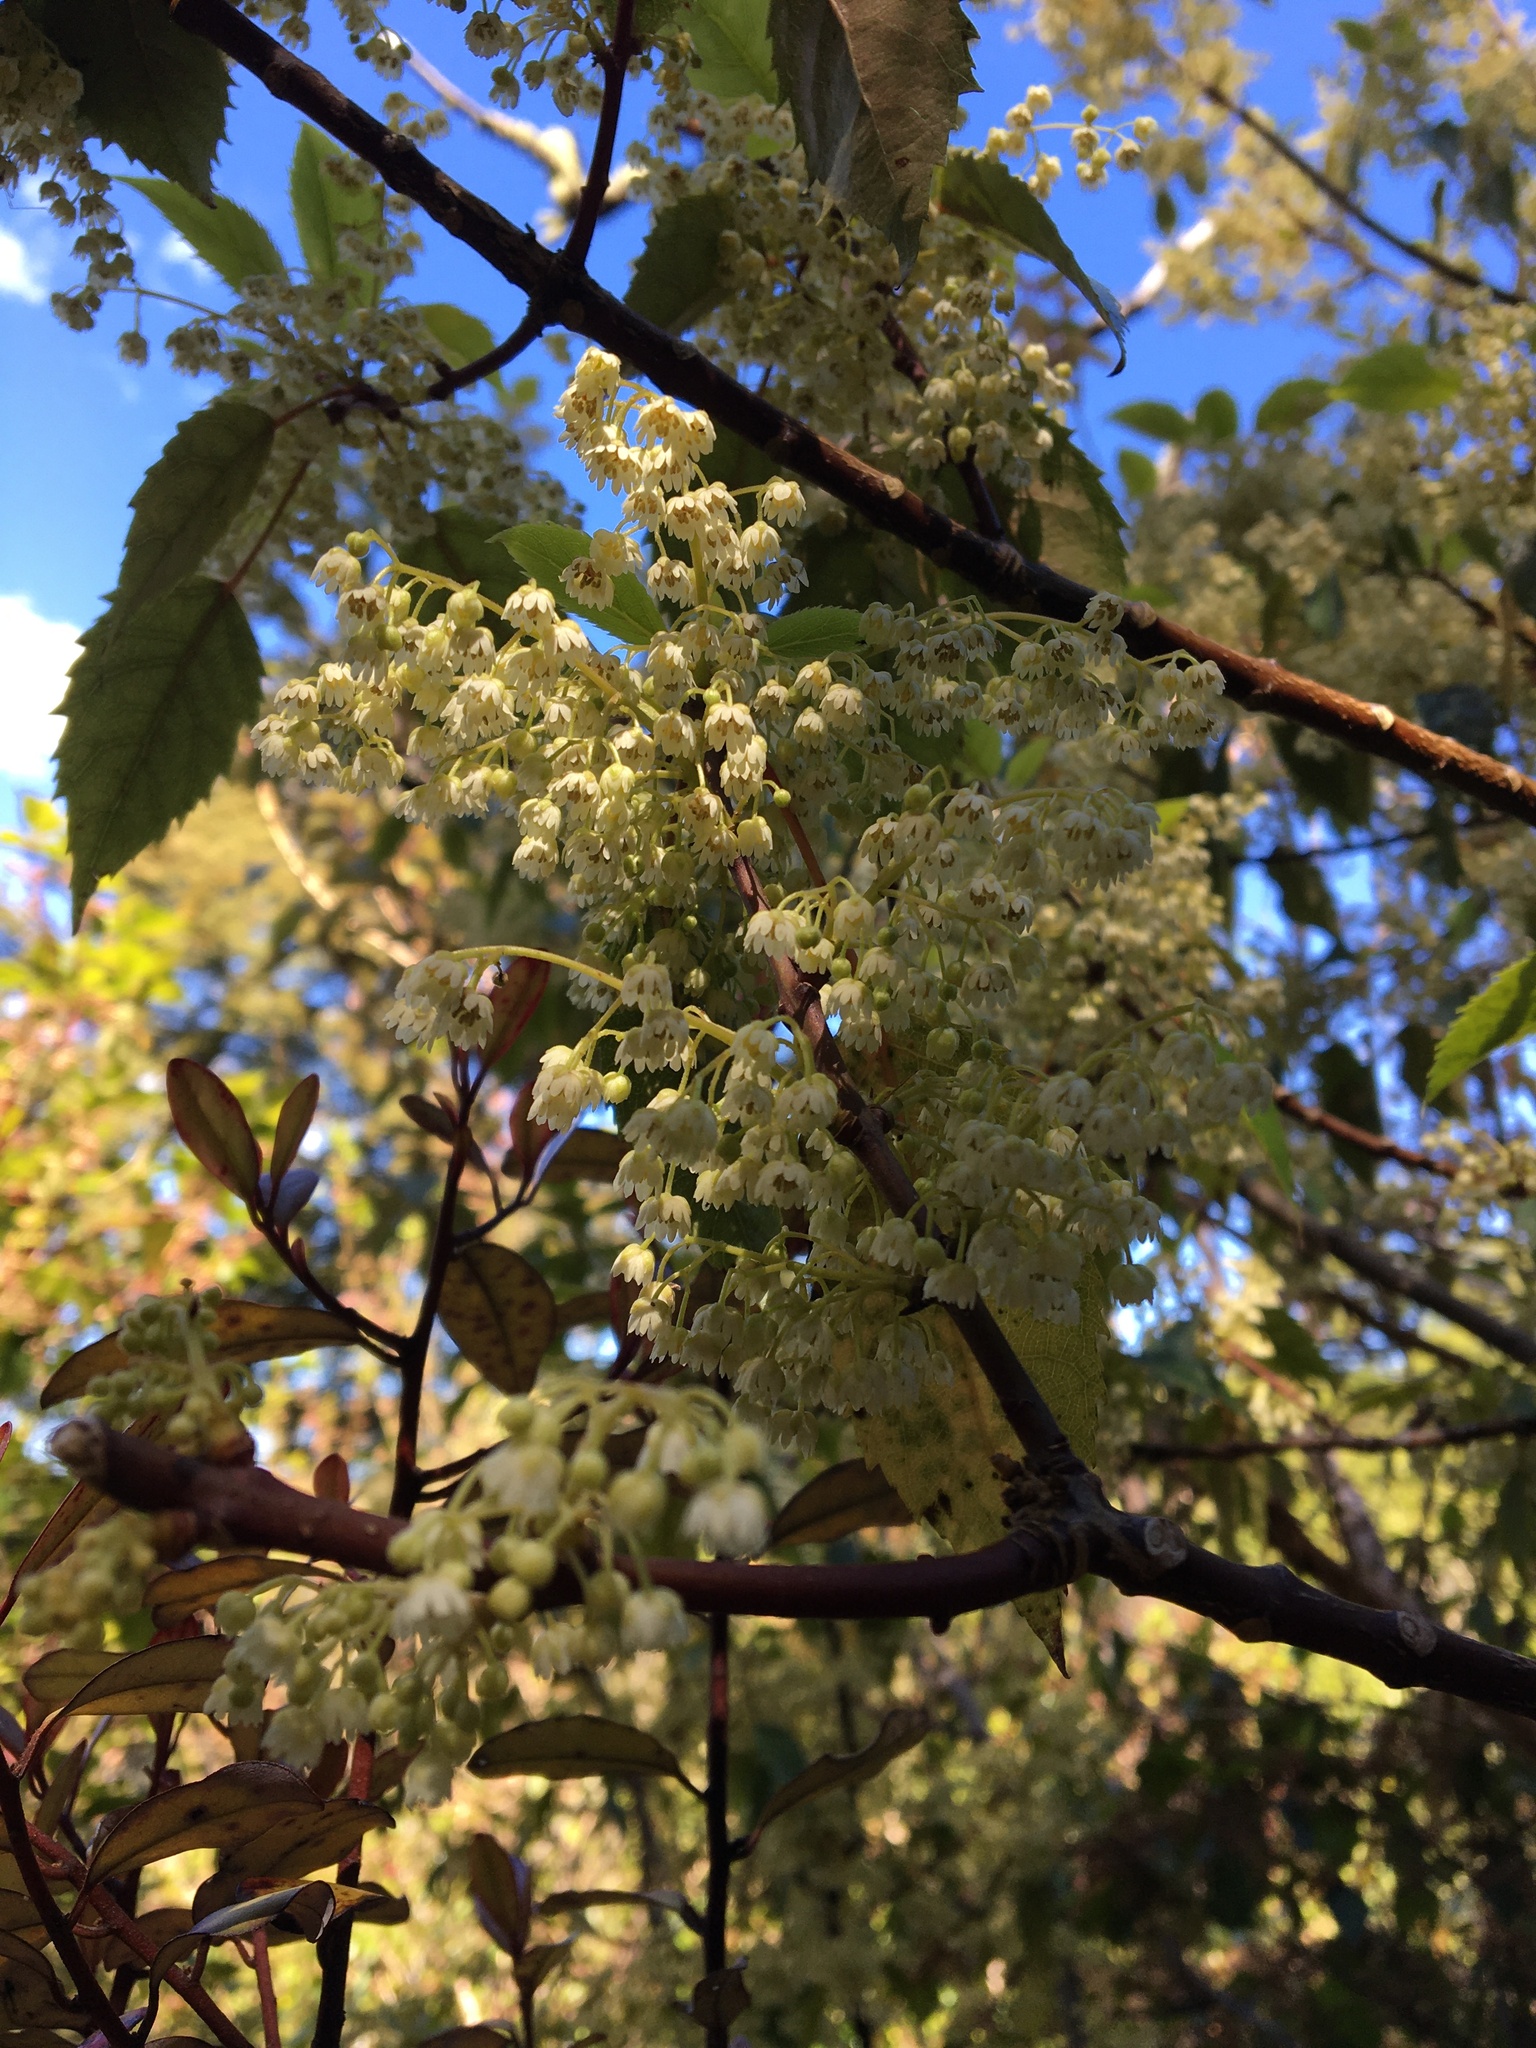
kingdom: Plantae
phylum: Tracheophyta
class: Magnoliopsida
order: Oxalidales
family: Elaeocarpaceae
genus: Aristotelia
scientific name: Aristotelia serrata
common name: New zealand wineberry
